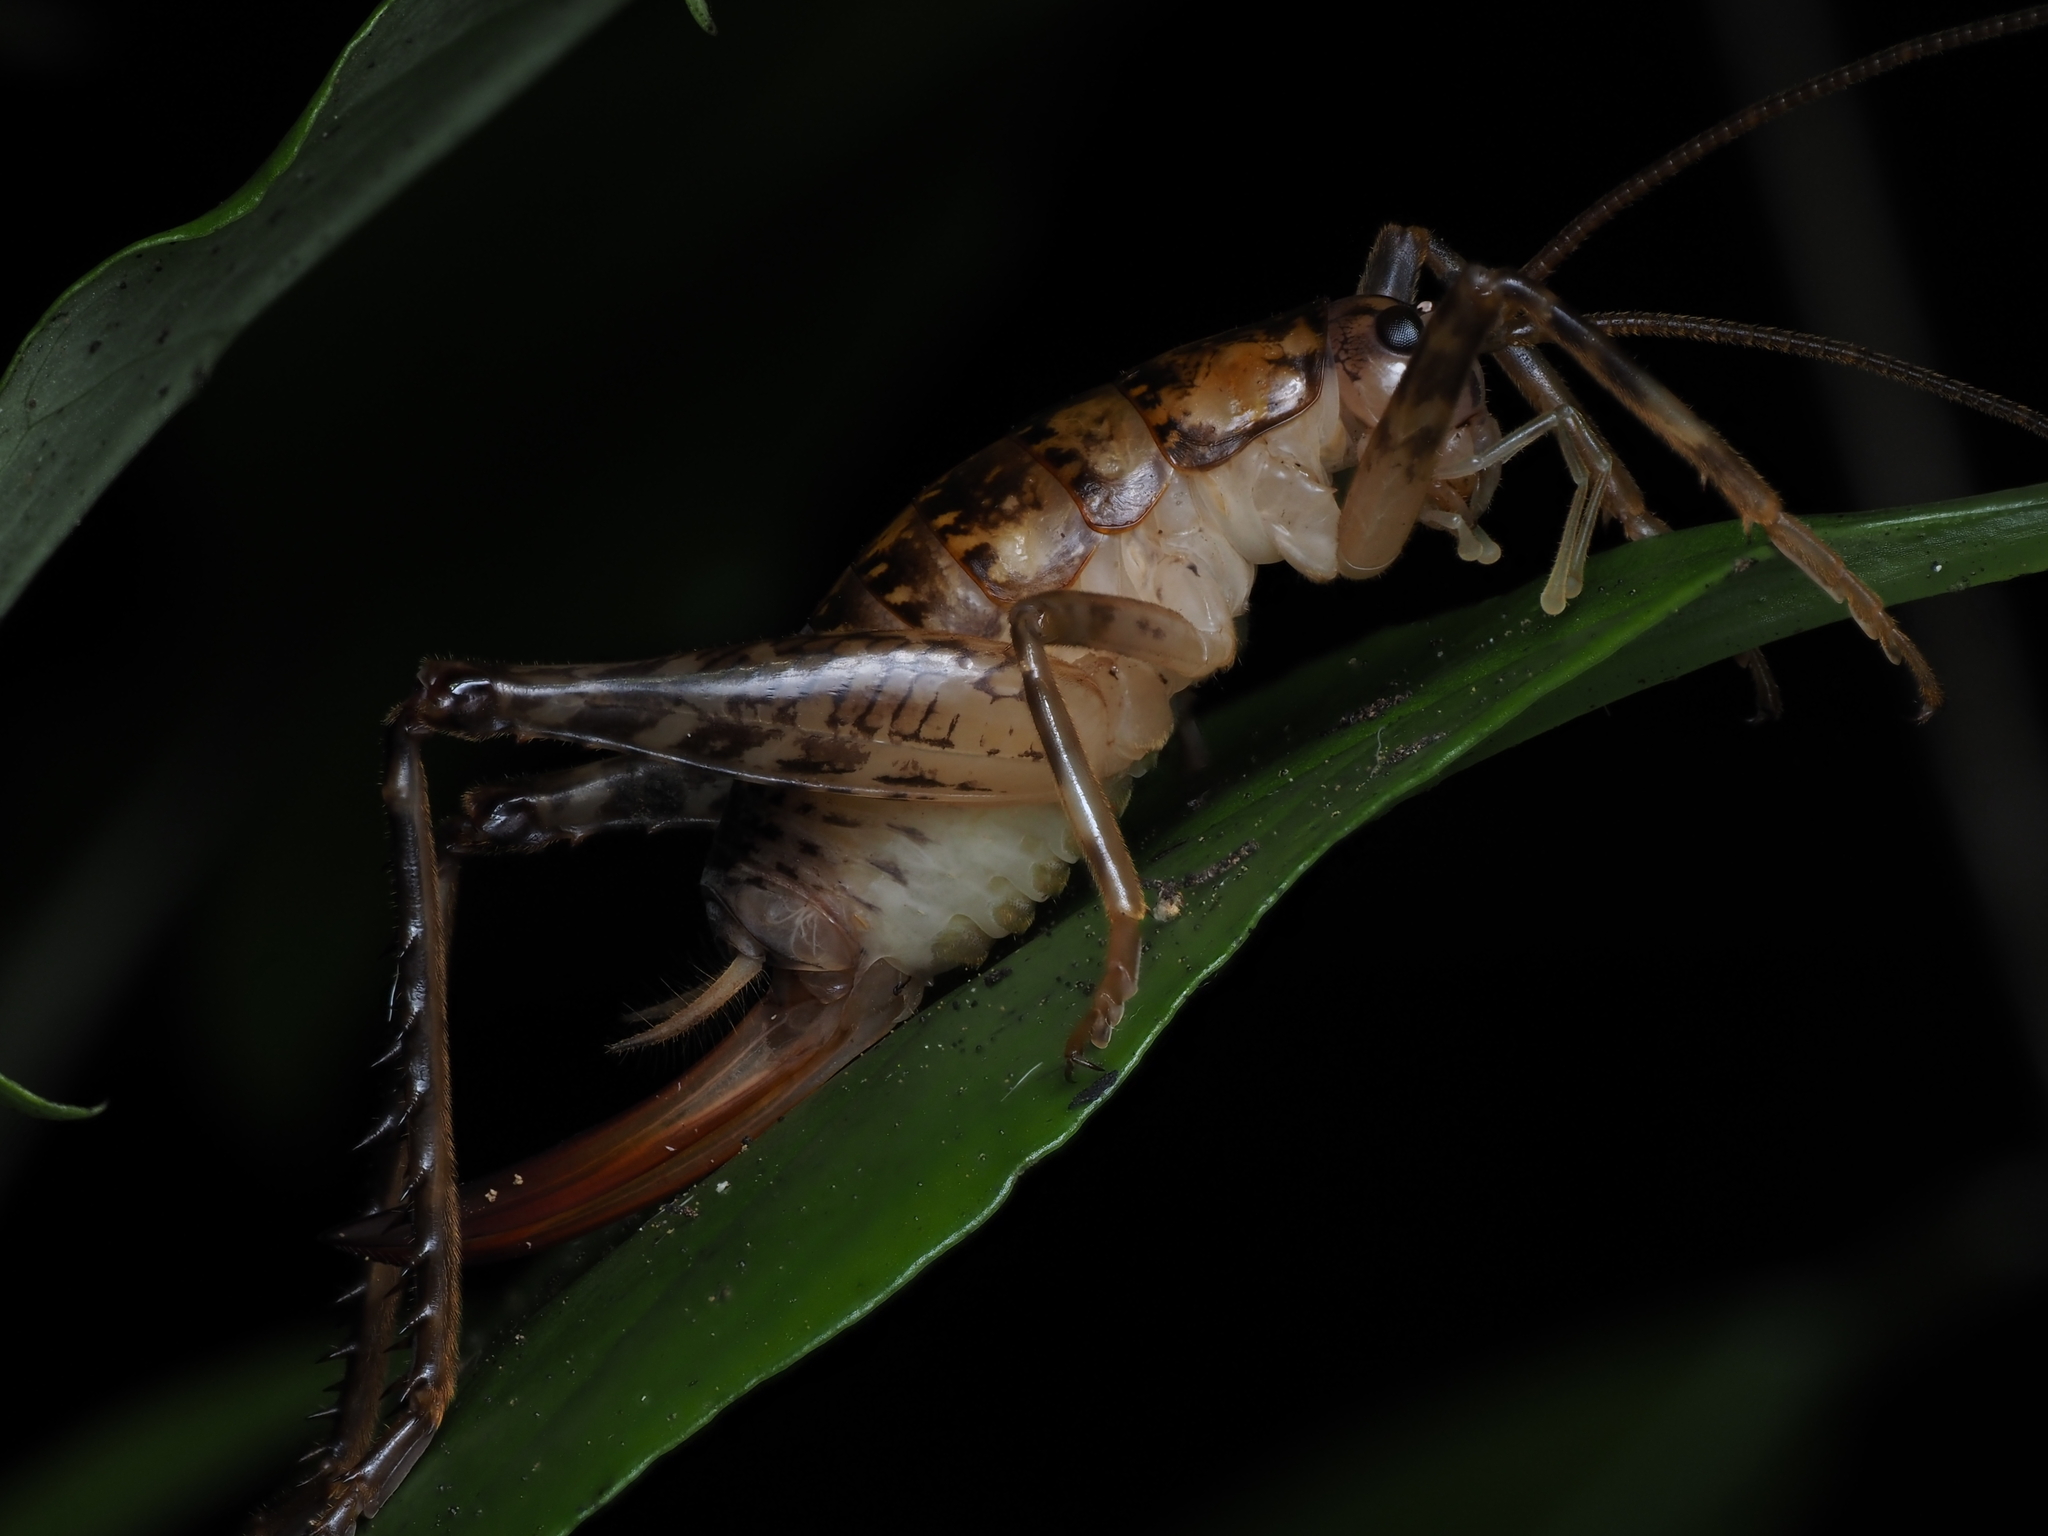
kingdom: Animalia
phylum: Arthropoda
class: Insecta
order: Orthoptera
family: Rhaphidophoridae
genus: Talitropsis
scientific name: Talitropsis sedilloti
